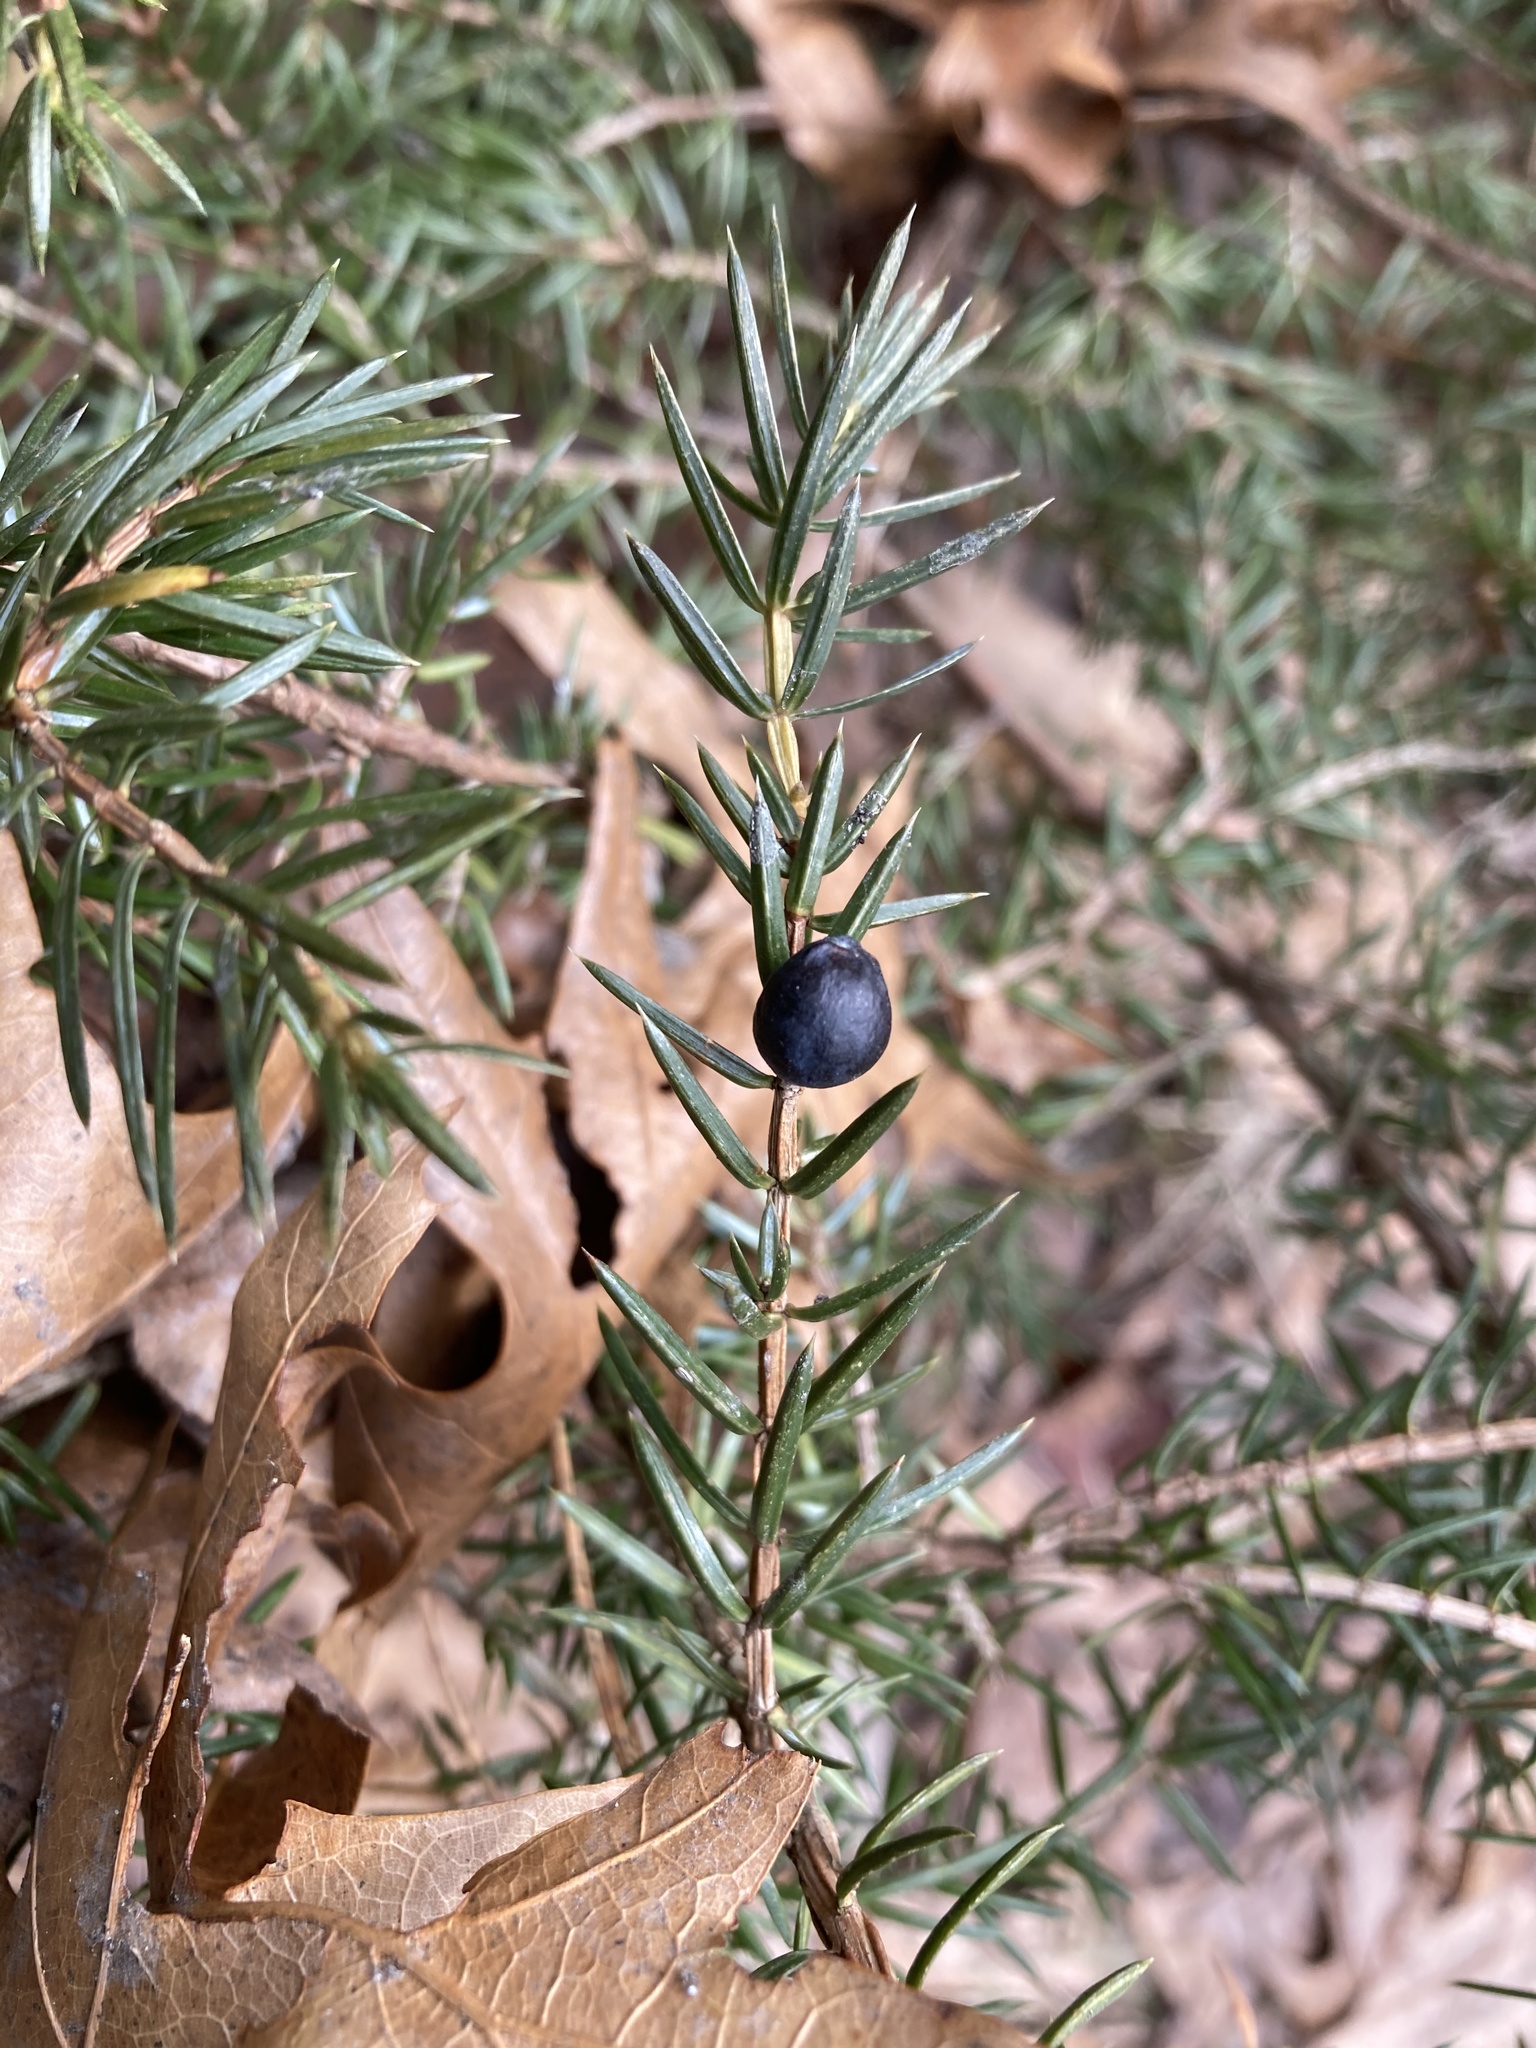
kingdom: Plantae
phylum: Tracheophyta
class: Pinopsida
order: Pinales
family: Cupressaceae
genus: Juniperus
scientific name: Juniperus communis
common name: Common juniper
